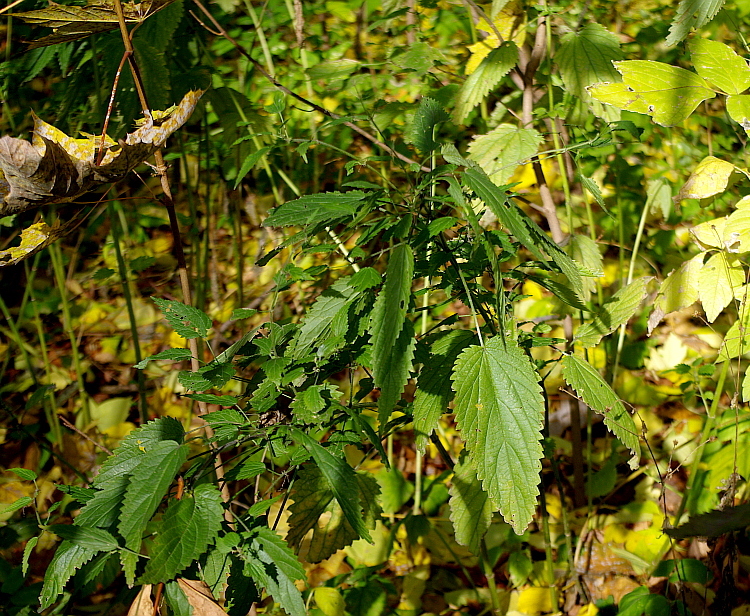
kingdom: Plantae
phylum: Tracheophyta
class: Magnoliopsida
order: Rosales
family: Urticaceae
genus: Urtica
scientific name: Urtica dioica
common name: Common nettle
